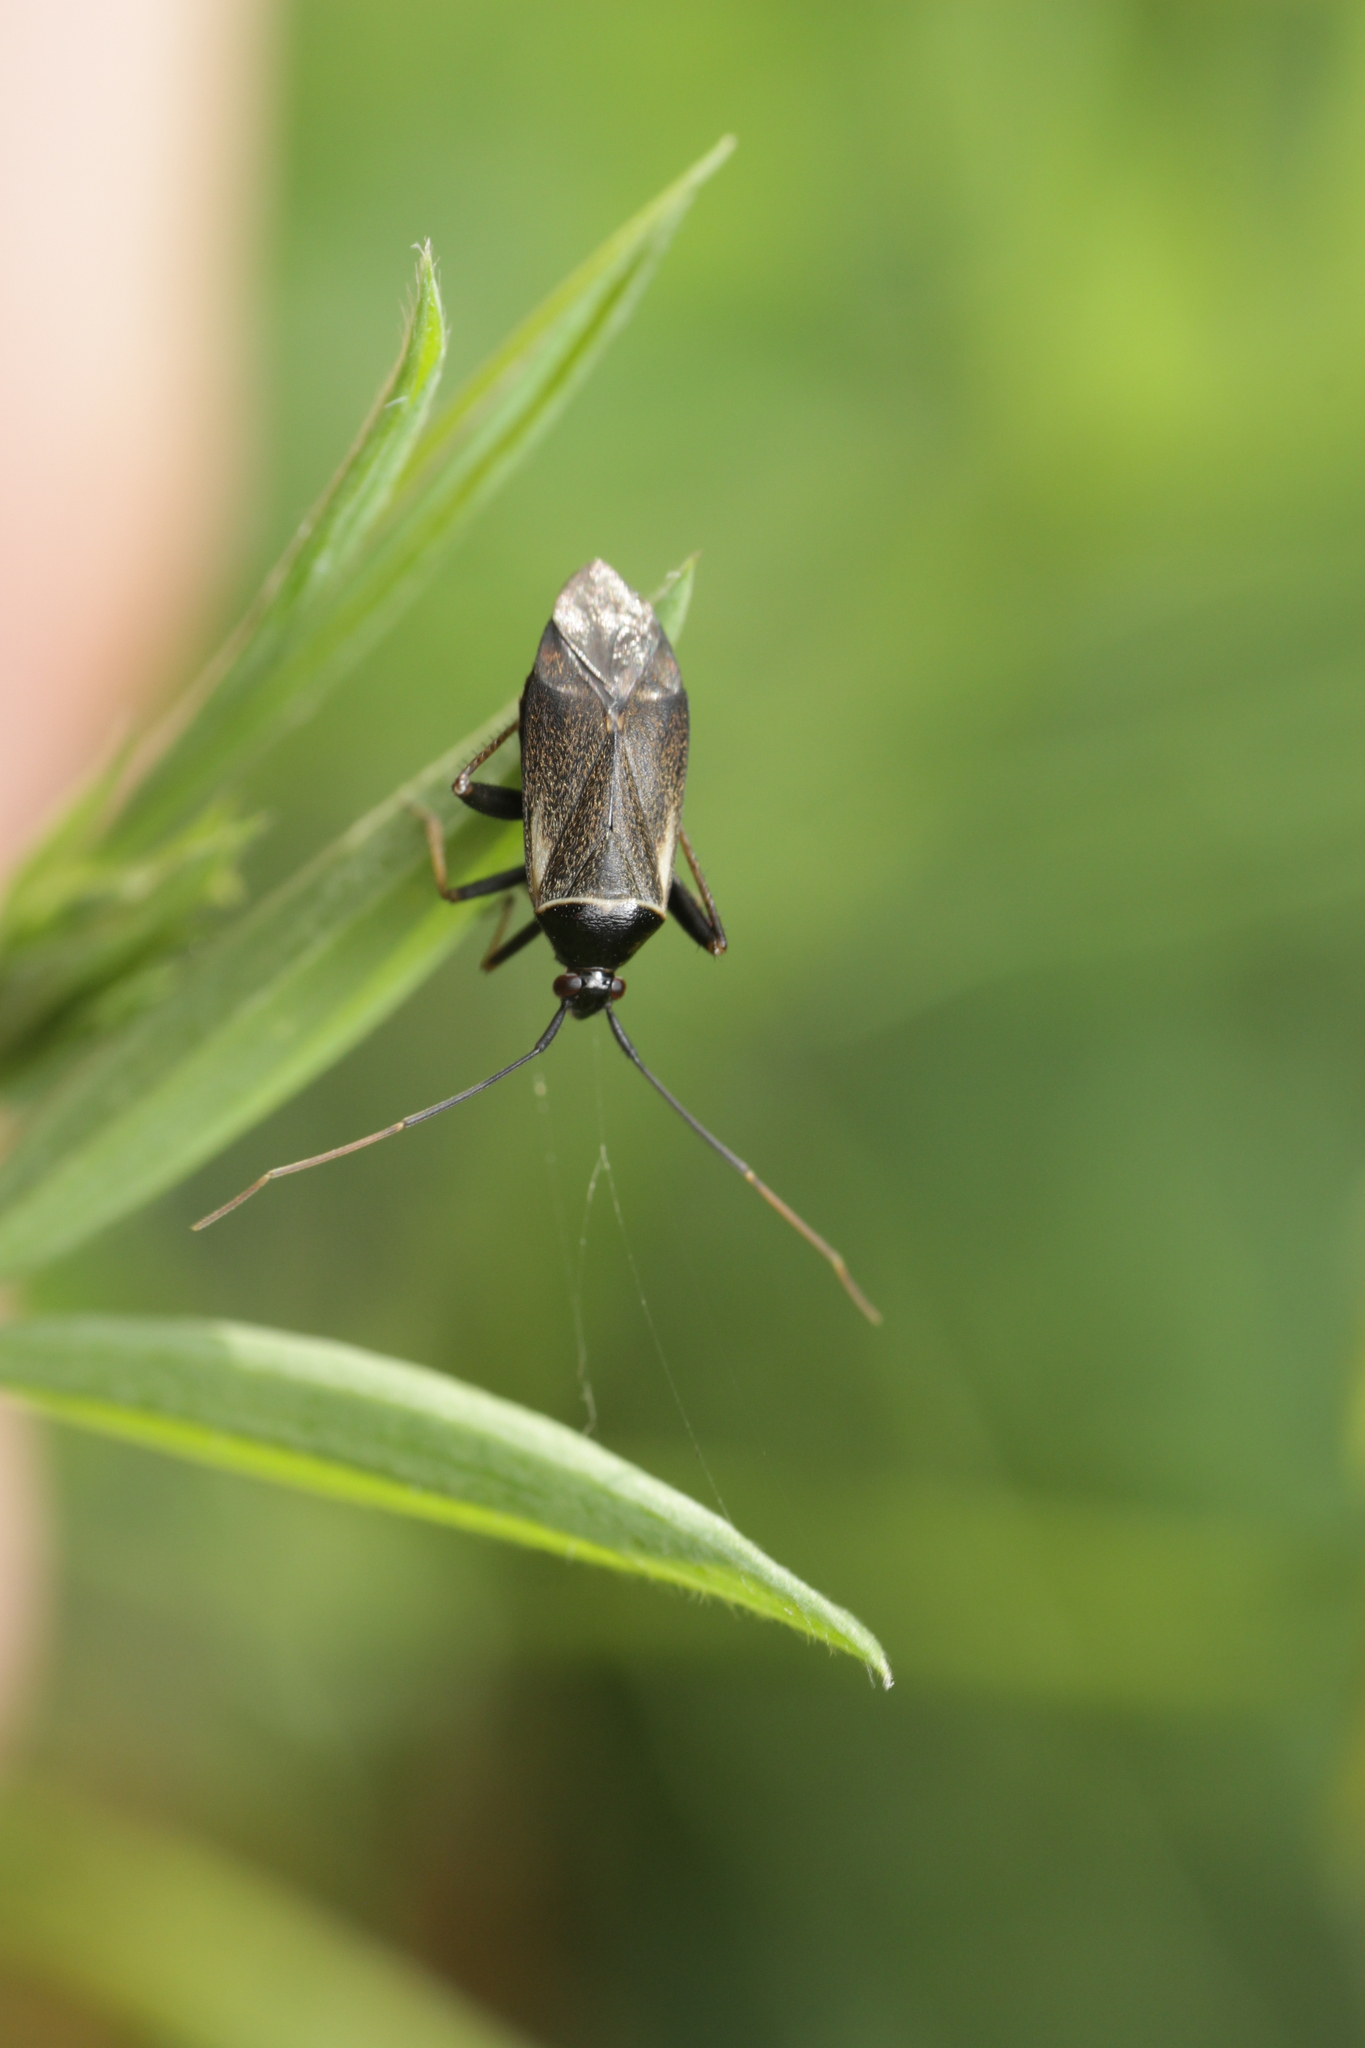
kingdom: Animalia
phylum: Arthropoda
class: Insecta
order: Hemiptera
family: Miridae
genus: Adelphocoris
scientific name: Adelphocoris seticornis
